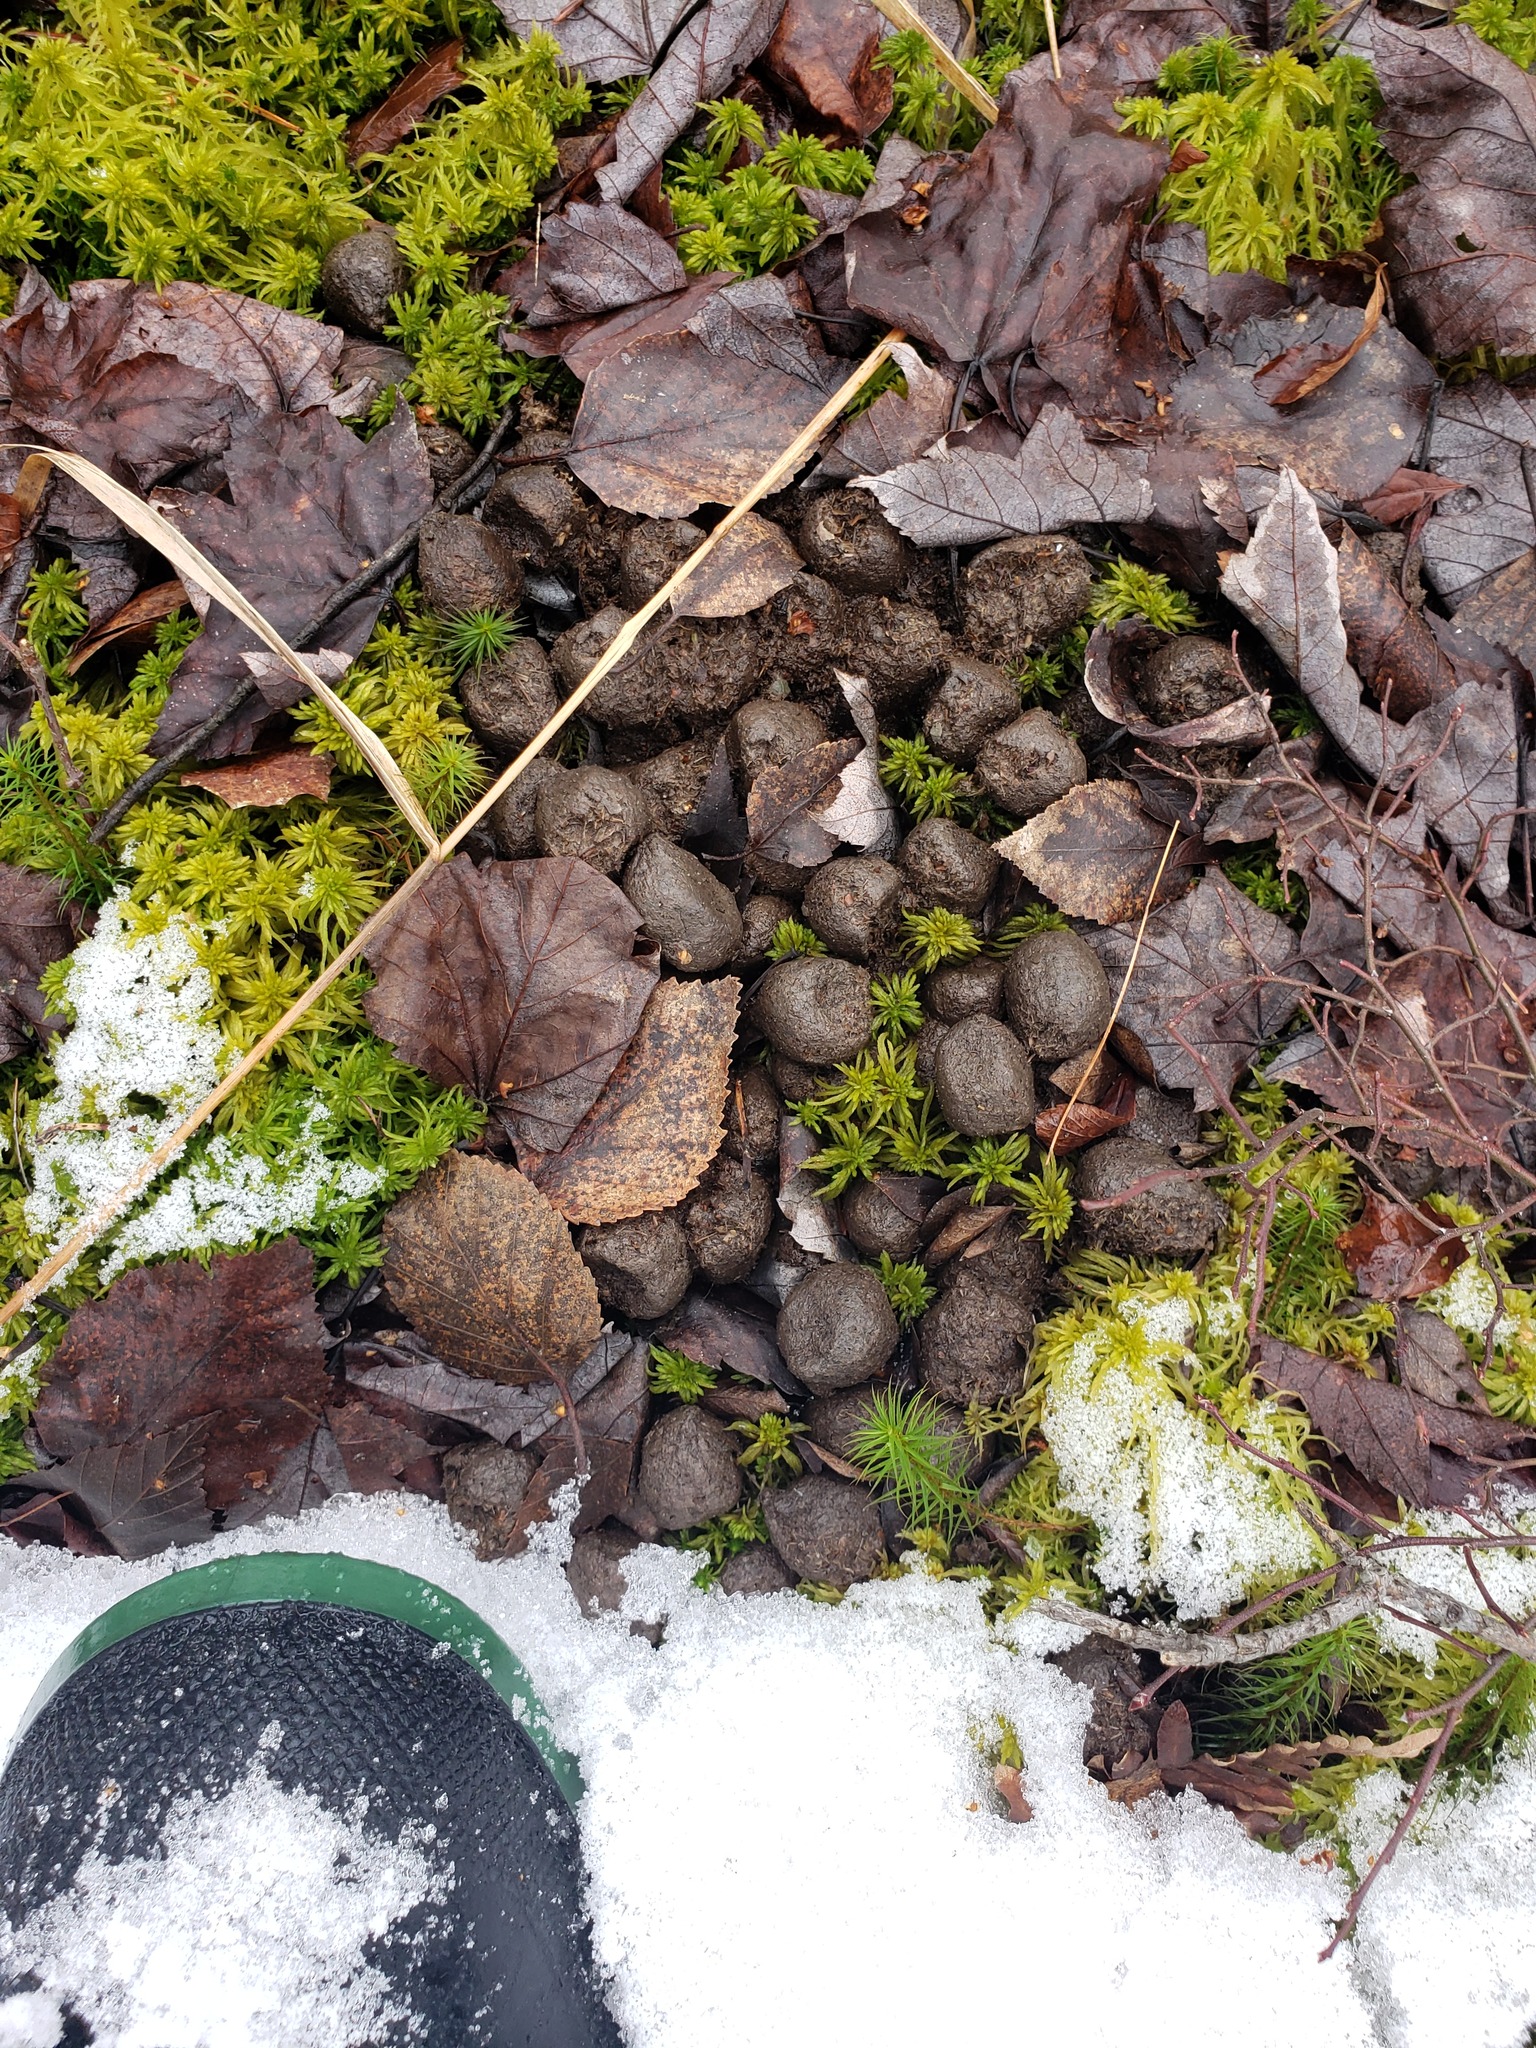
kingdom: Animalia
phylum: Chordata
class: Mammalia
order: Artiodactyla
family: Cervidae
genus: Alces
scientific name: Alces alces
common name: Moose
